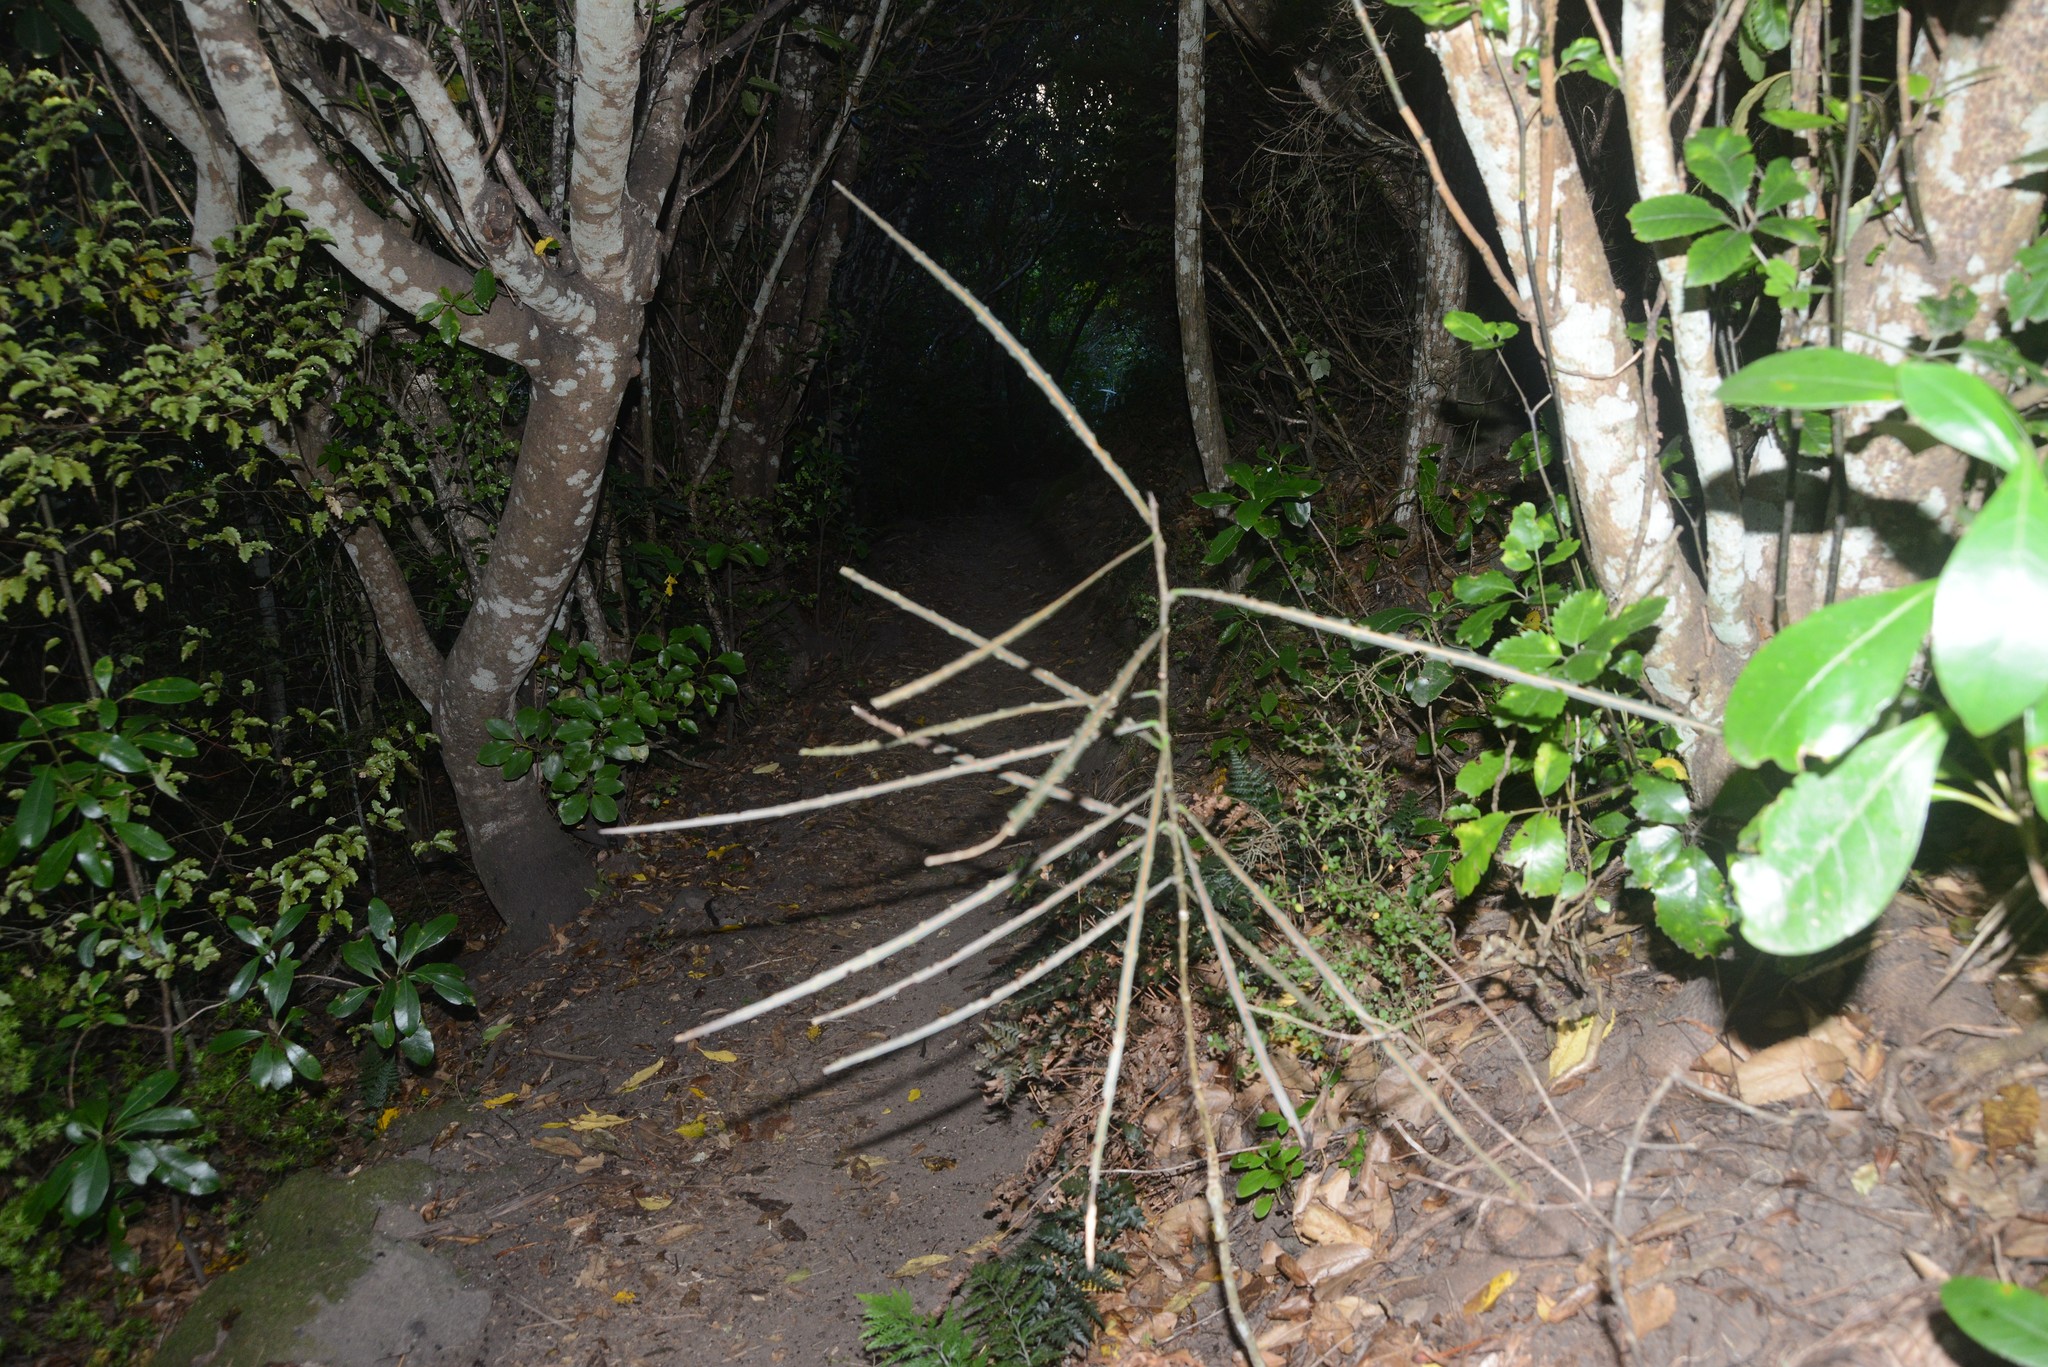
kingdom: Plantae
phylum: Tracheophyta
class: Magnoliopsida
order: Apiales
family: Araliaceae
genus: Pseudopanax
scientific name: Pseudopanax crassifolius
